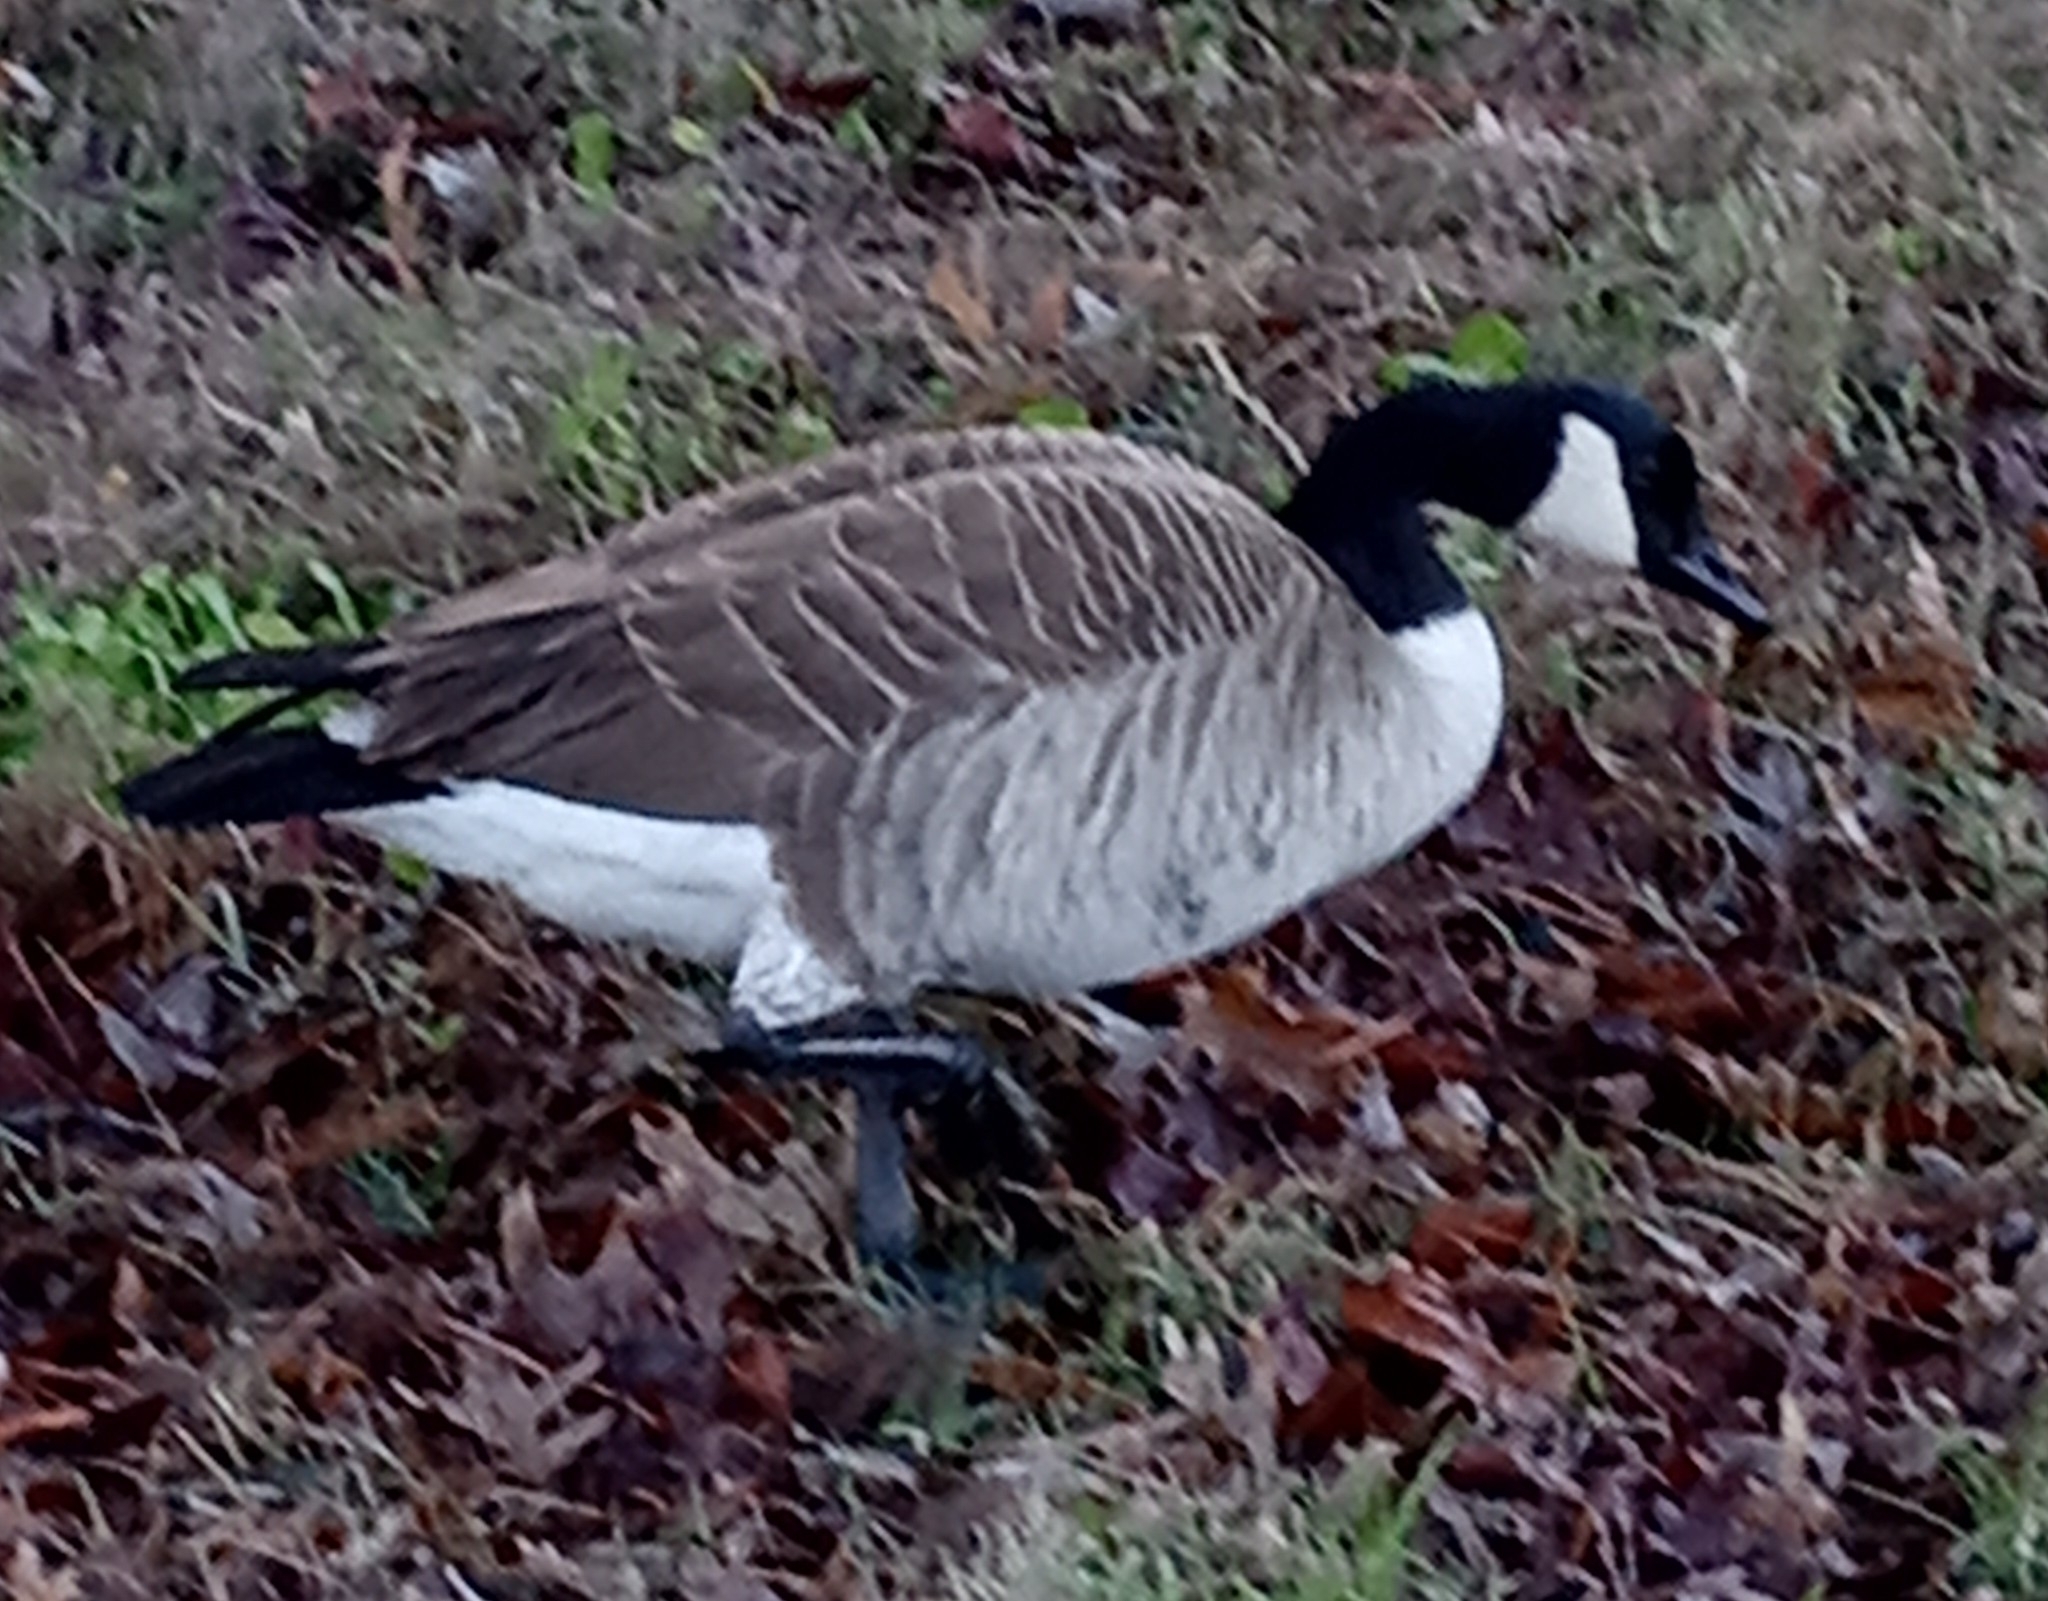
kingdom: Animalia
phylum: Chordata
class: Aves
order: Anseriformes
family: Anatidae
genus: Branta
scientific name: Branta canadensis
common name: Canada goose
